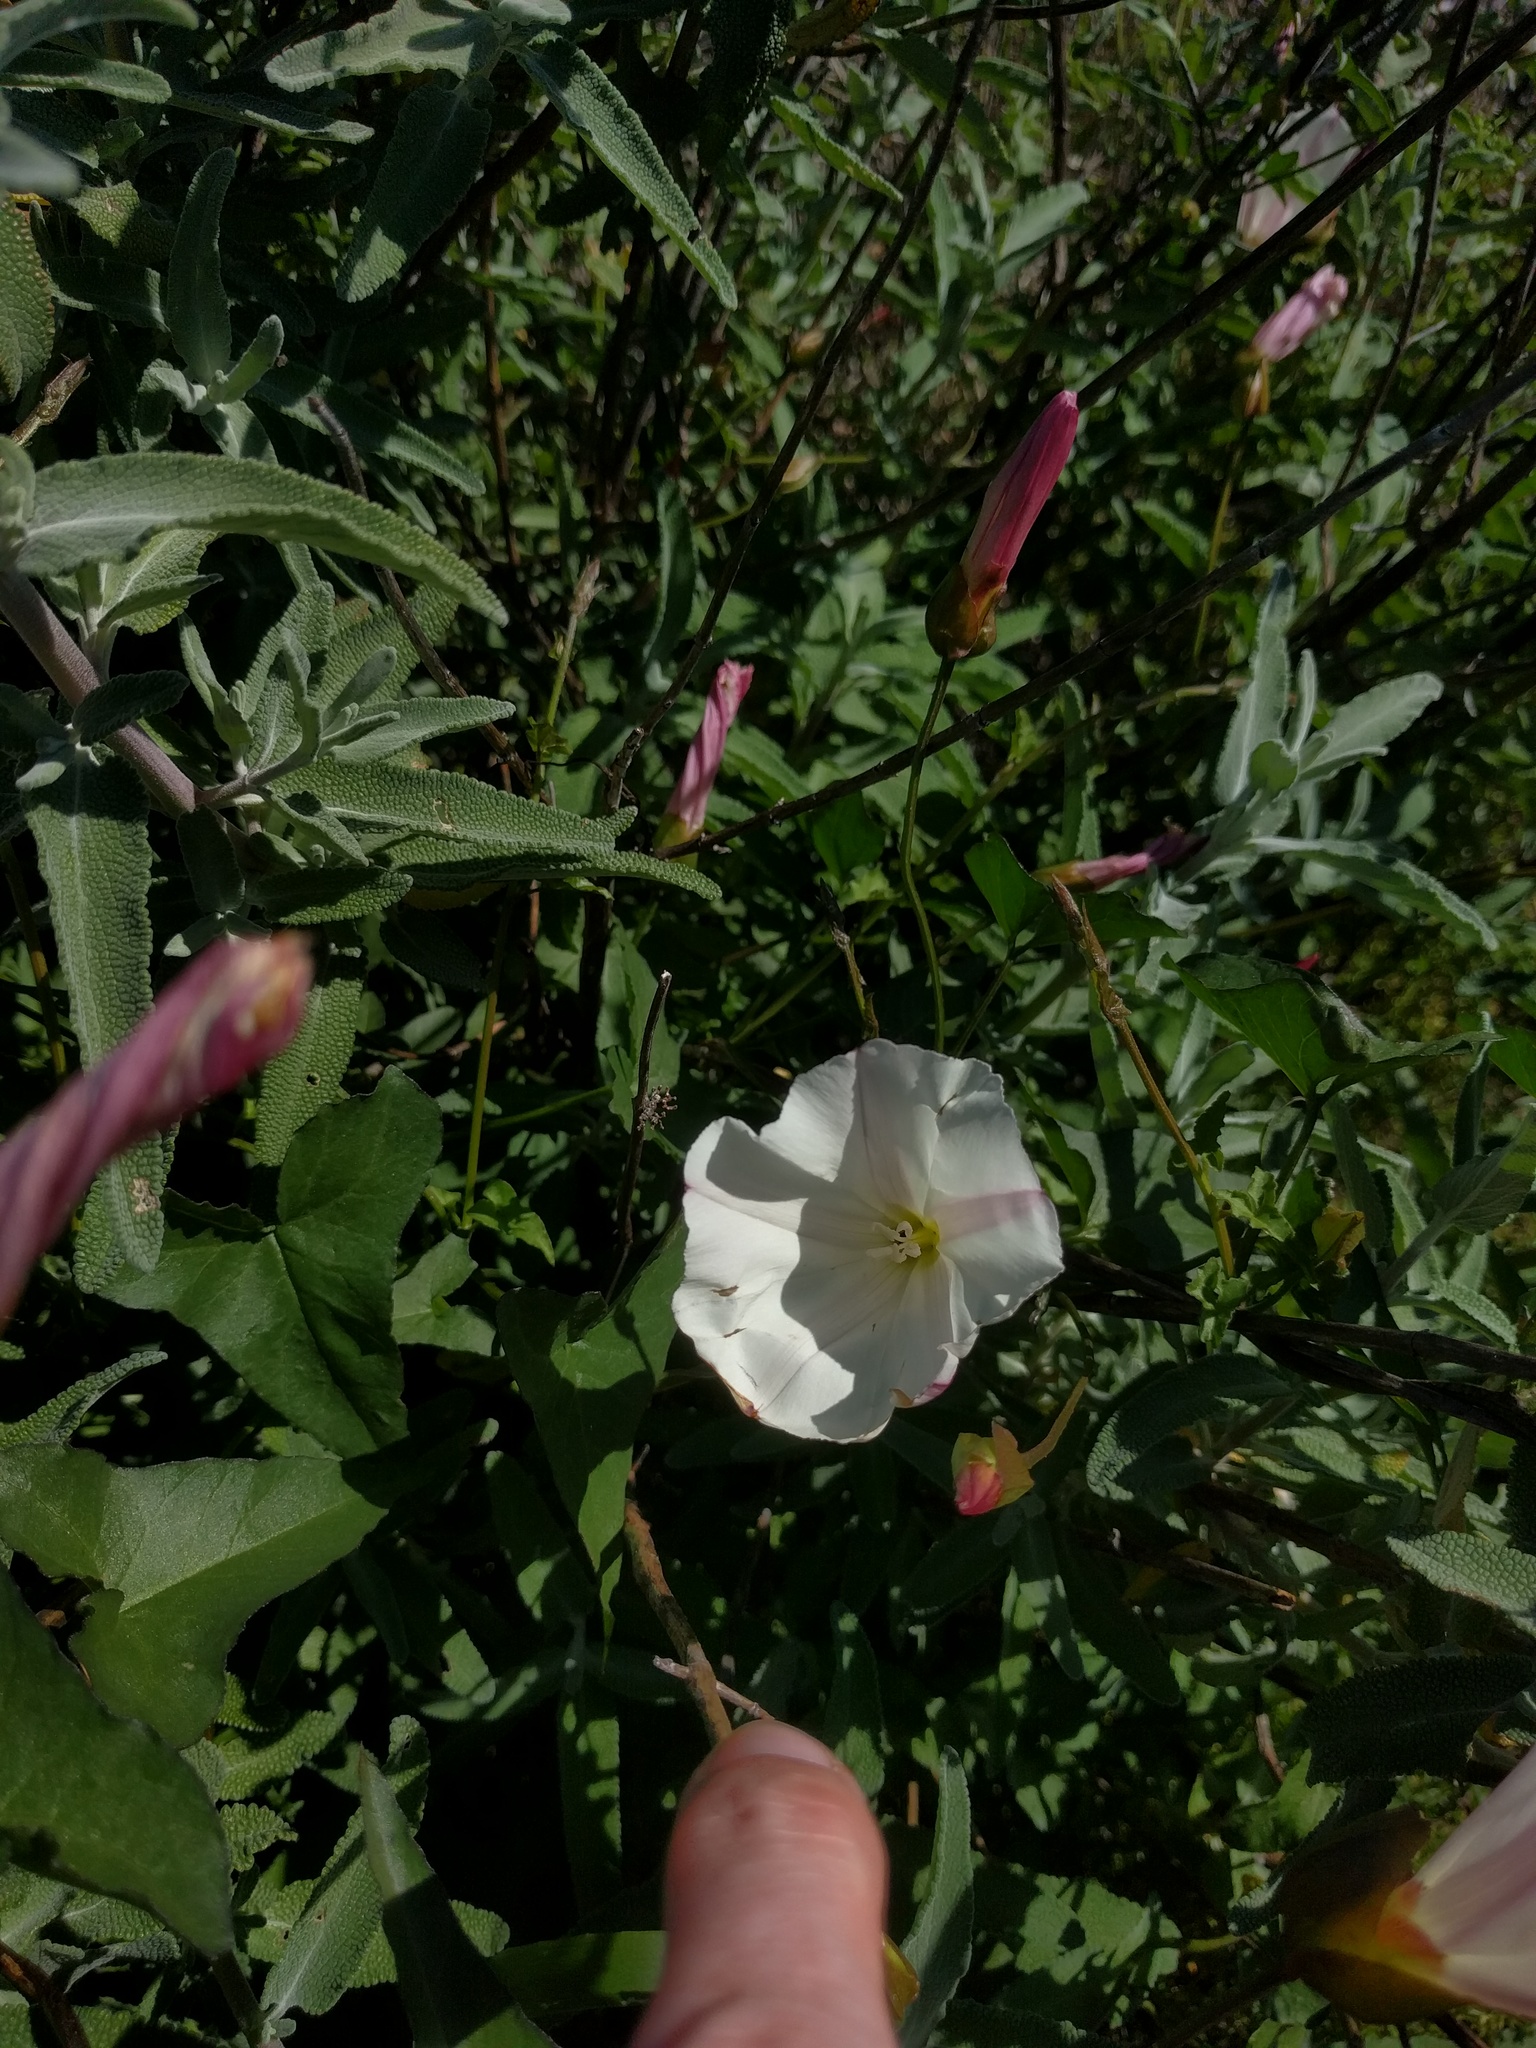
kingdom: Plantae
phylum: Tracheophyta
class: Magnoliopsida
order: Solanales
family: Convolvulaceae
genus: Calystegia
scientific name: Calystegia macrostegia
